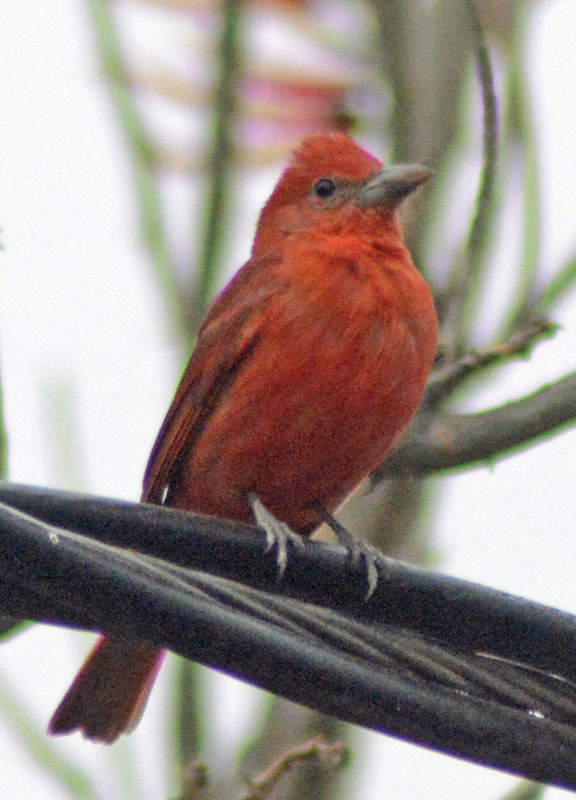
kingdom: Animalia
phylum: Chordata
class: Aves
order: Passeriformes
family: Cardinalidae
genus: Piranga
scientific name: Piranga rubra
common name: Summer tanager
